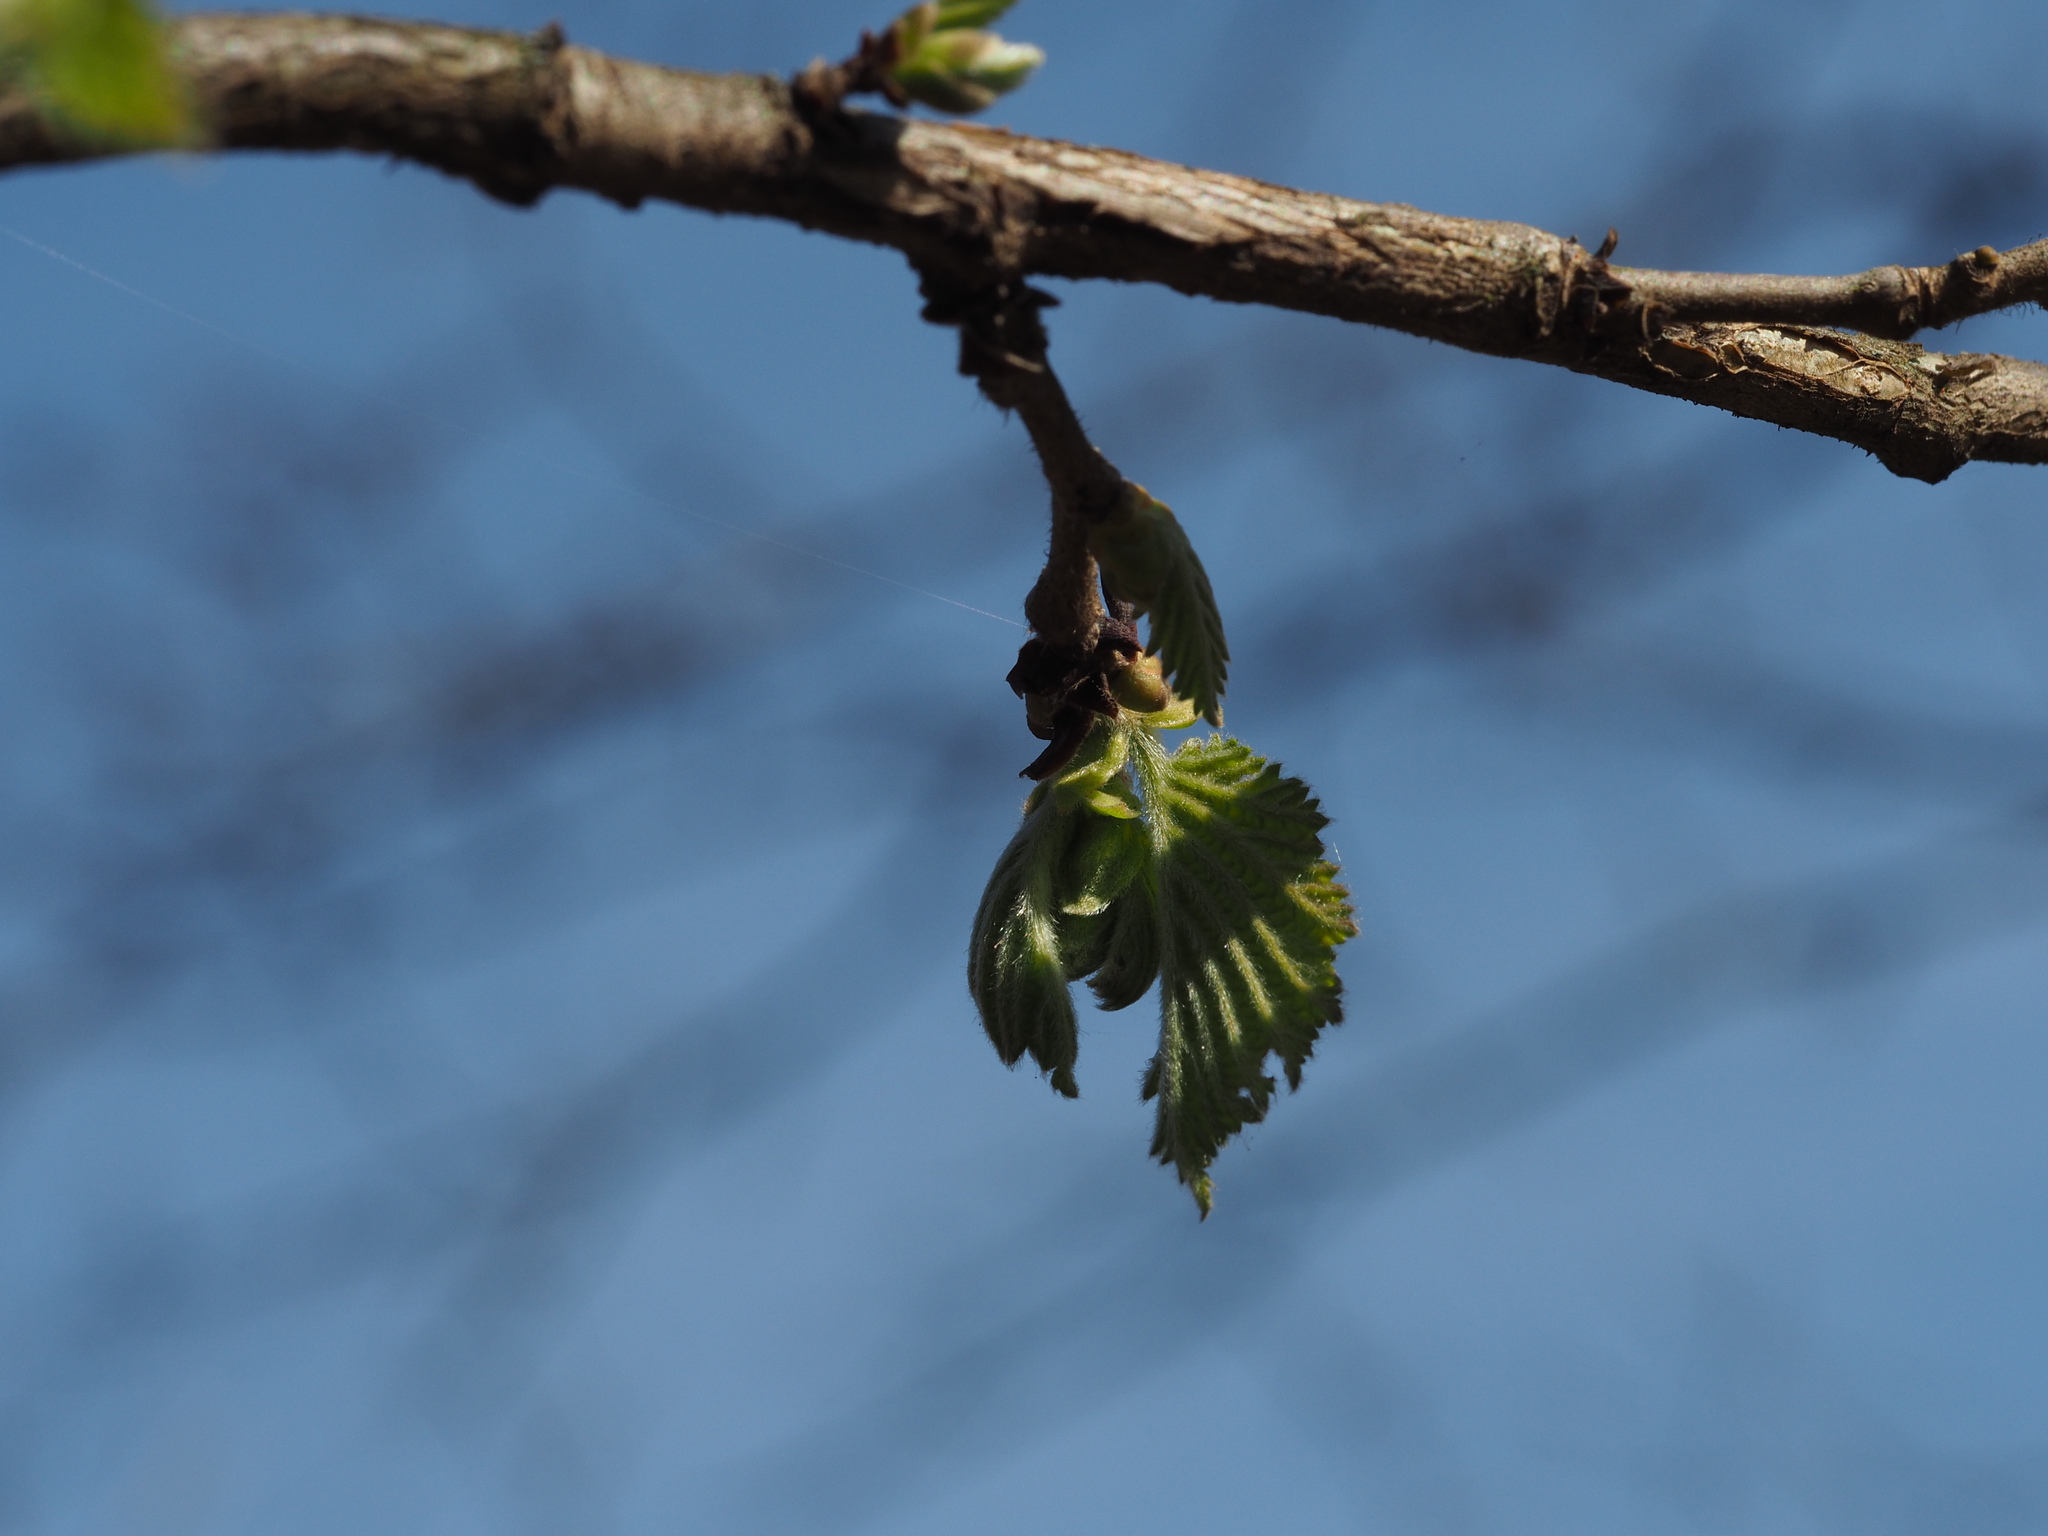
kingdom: Plantae
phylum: Tracheophyta
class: Magnoliopsida
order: Fagales
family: Betulaceae
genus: Corylus
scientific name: Corylus avellana
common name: European hazel
